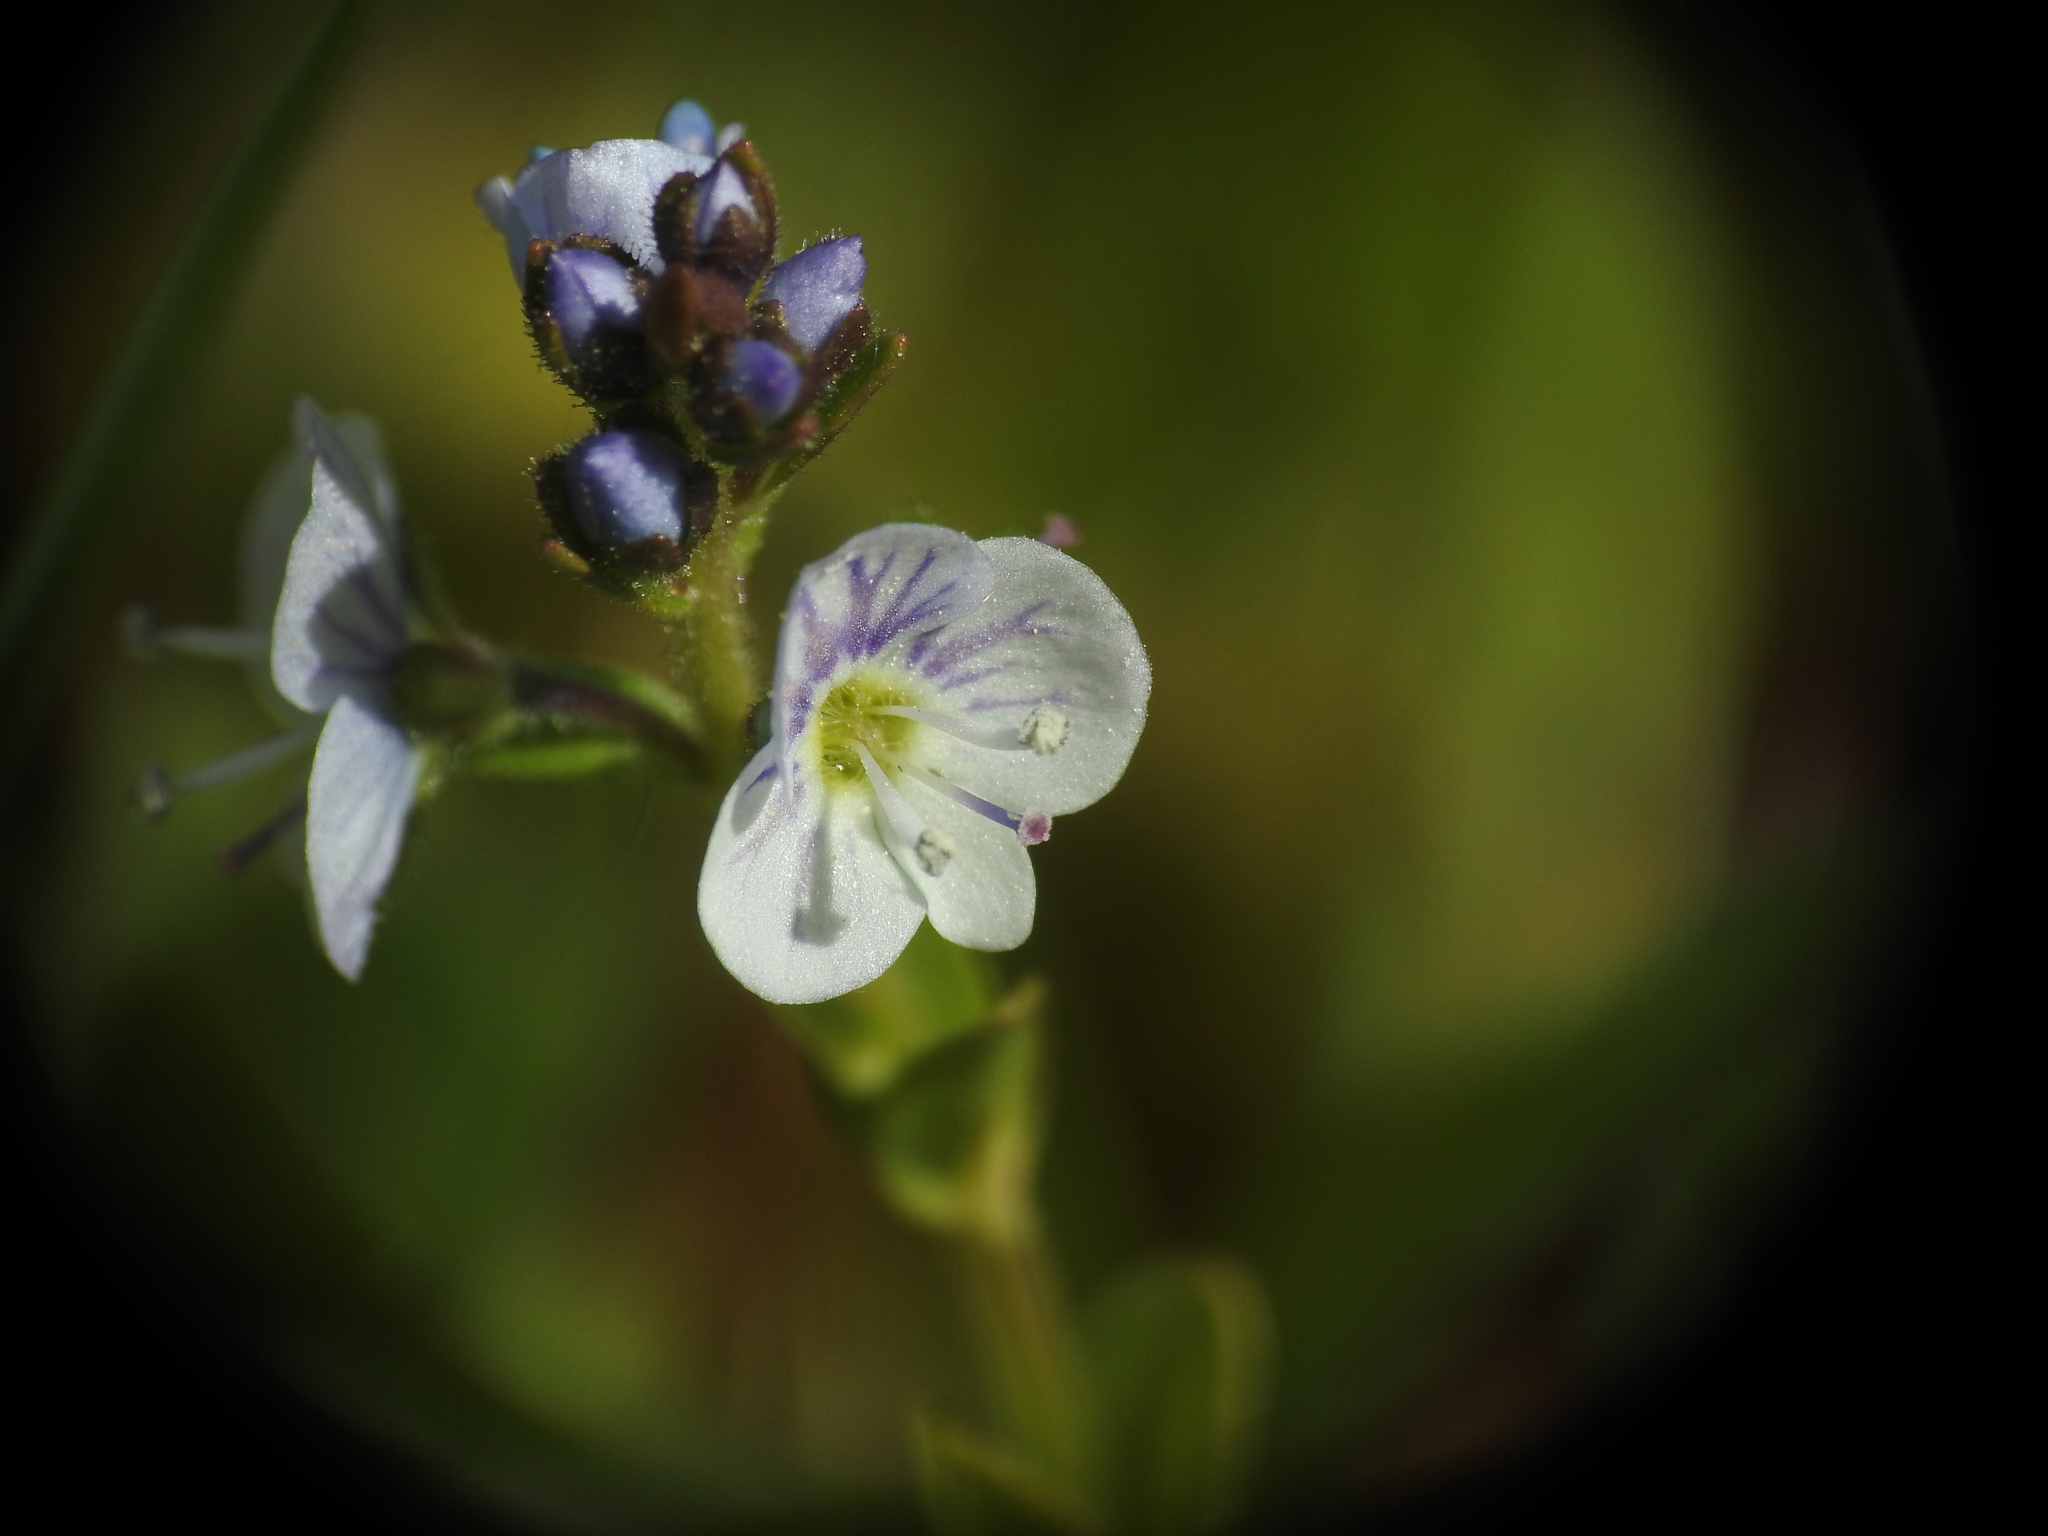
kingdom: Plantae
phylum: Tracheophyta
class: Magnoliopsida
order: Lamiales
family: Plantaginaceae
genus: Veronica
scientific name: Veronica serpyllifolia
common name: Thyme-leaved speedwell
